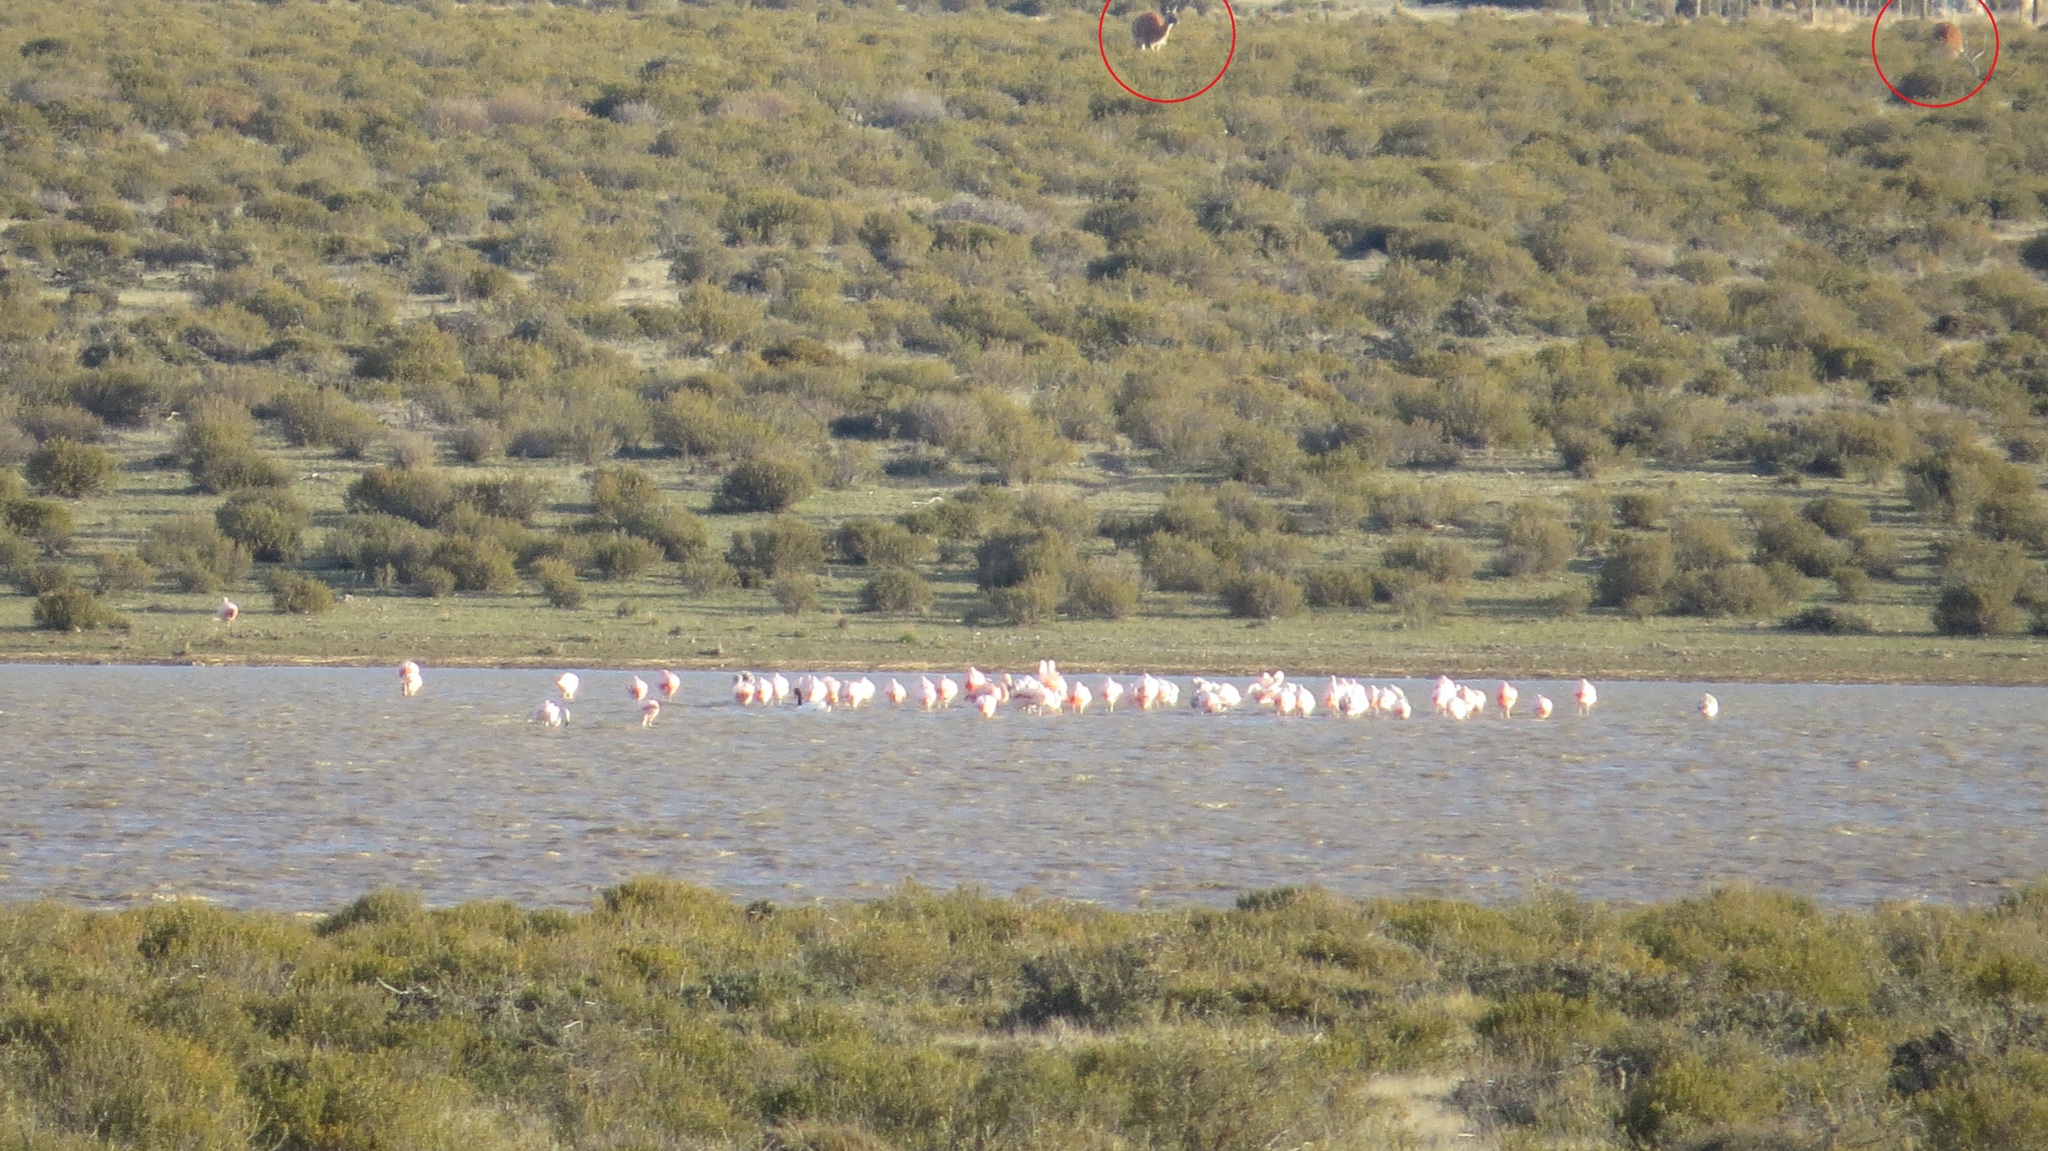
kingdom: Animalia
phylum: Chordata
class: Mammalia
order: Artiodactyla
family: Camelidae
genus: Lama
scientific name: Lama glama
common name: Llama
